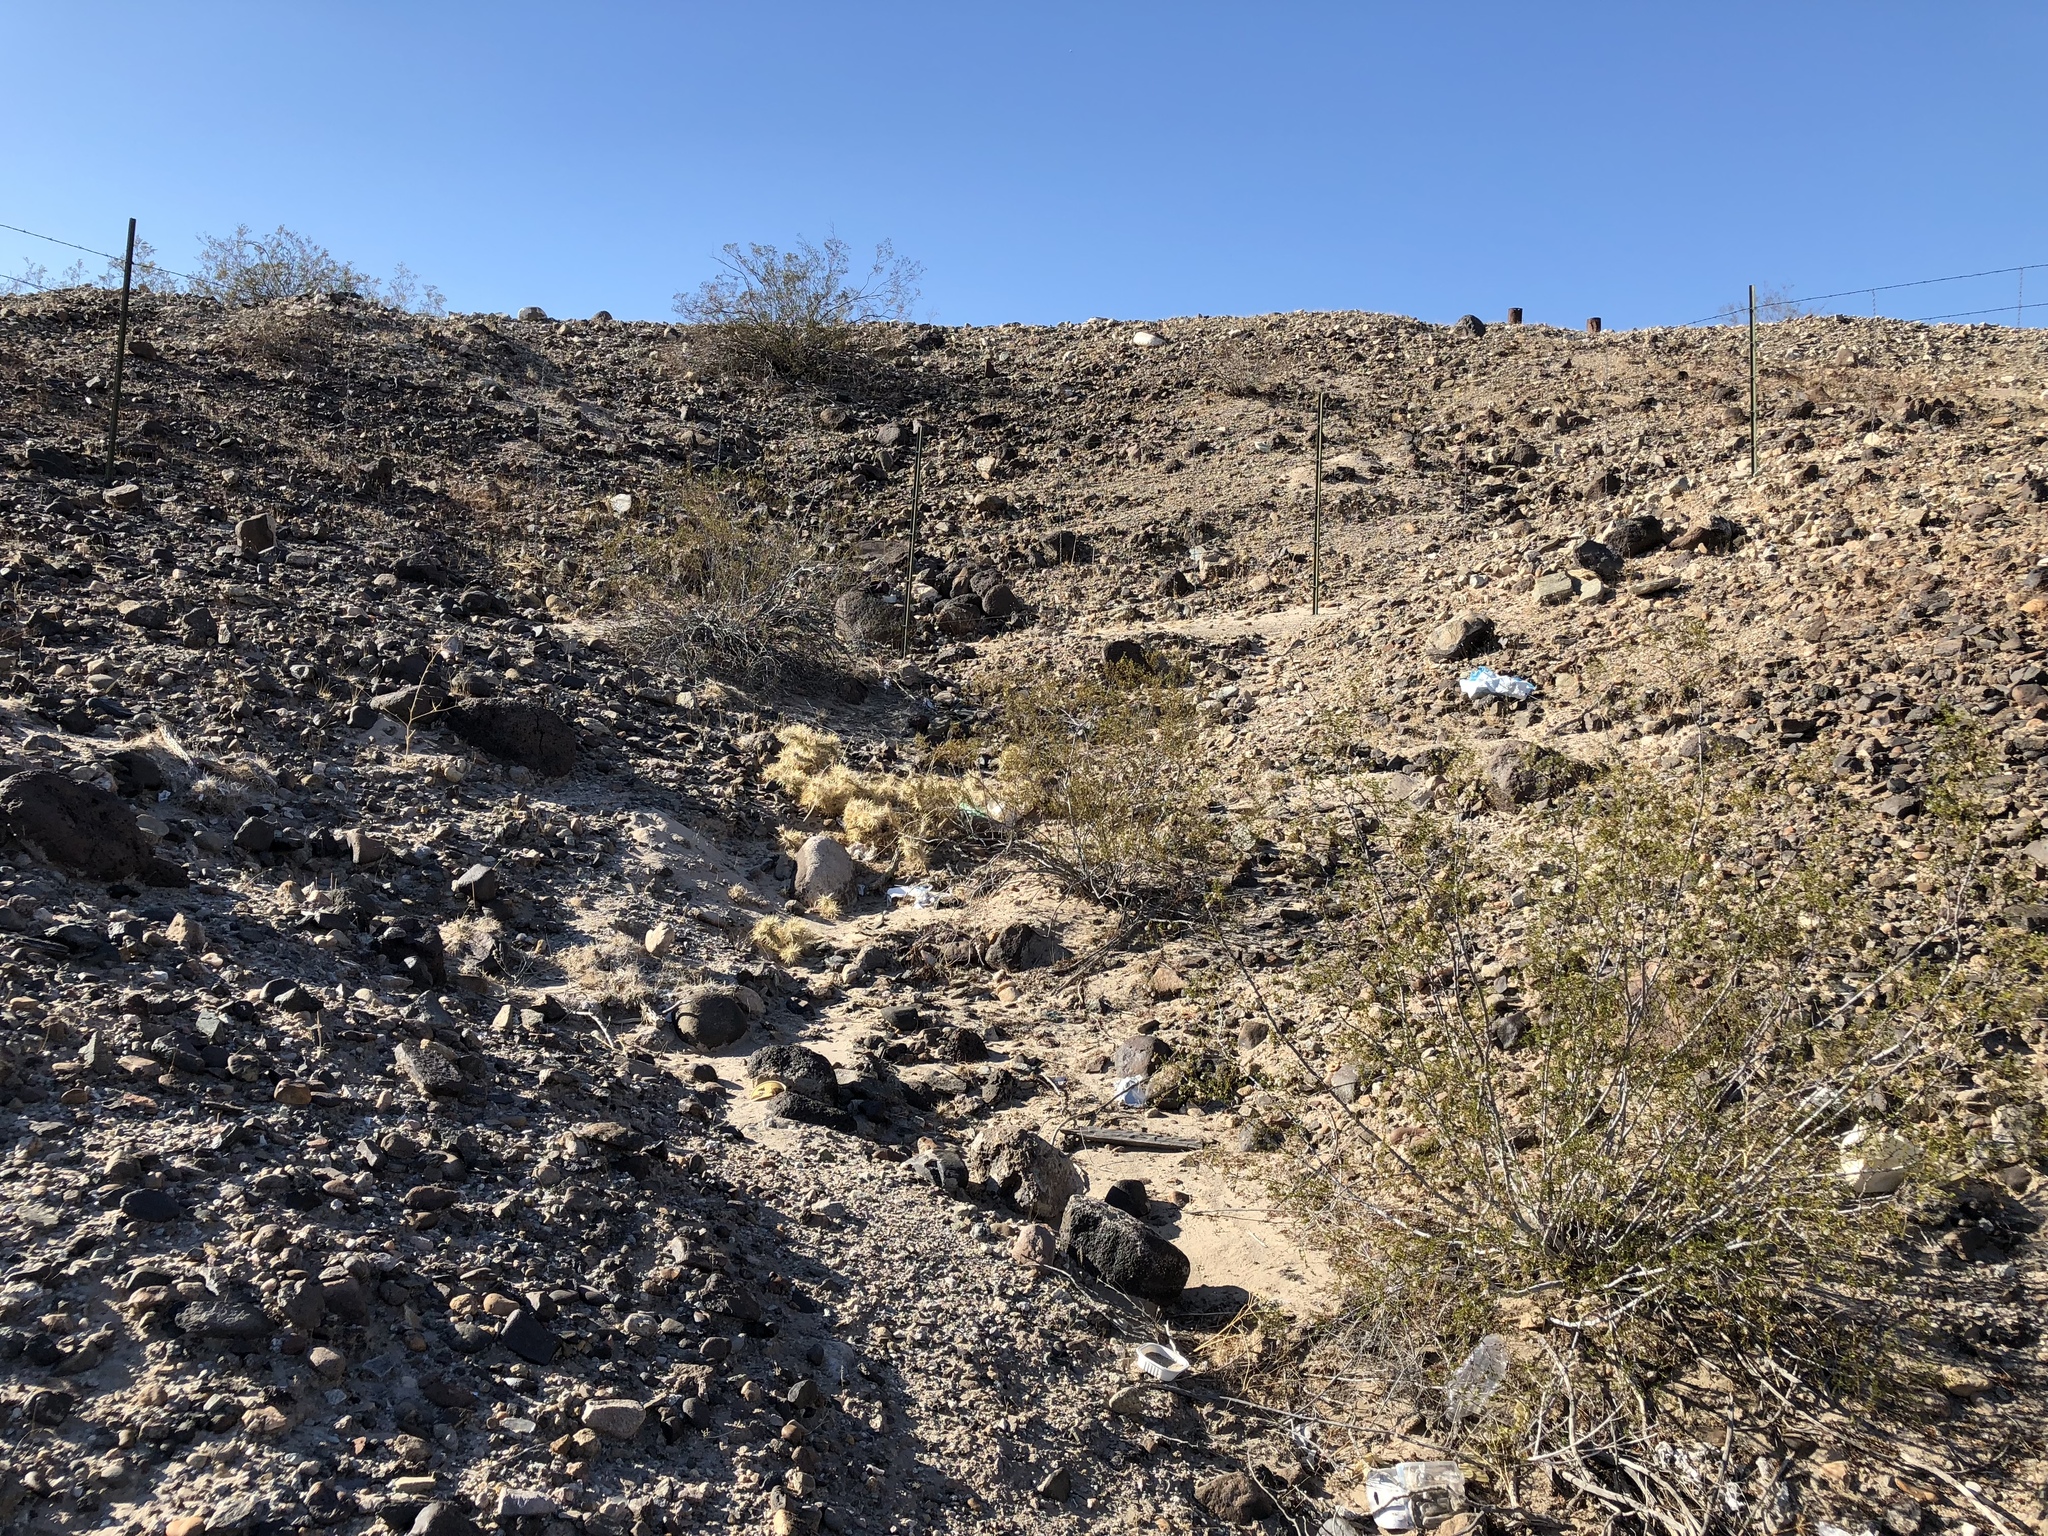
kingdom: Plantae
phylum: Tracheophyta
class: Magnoliopsida
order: Caryophyllales
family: Cactaceae
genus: Cylindropuntia
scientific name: Cylindropuntia echinocarpa
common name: Ground cholla
